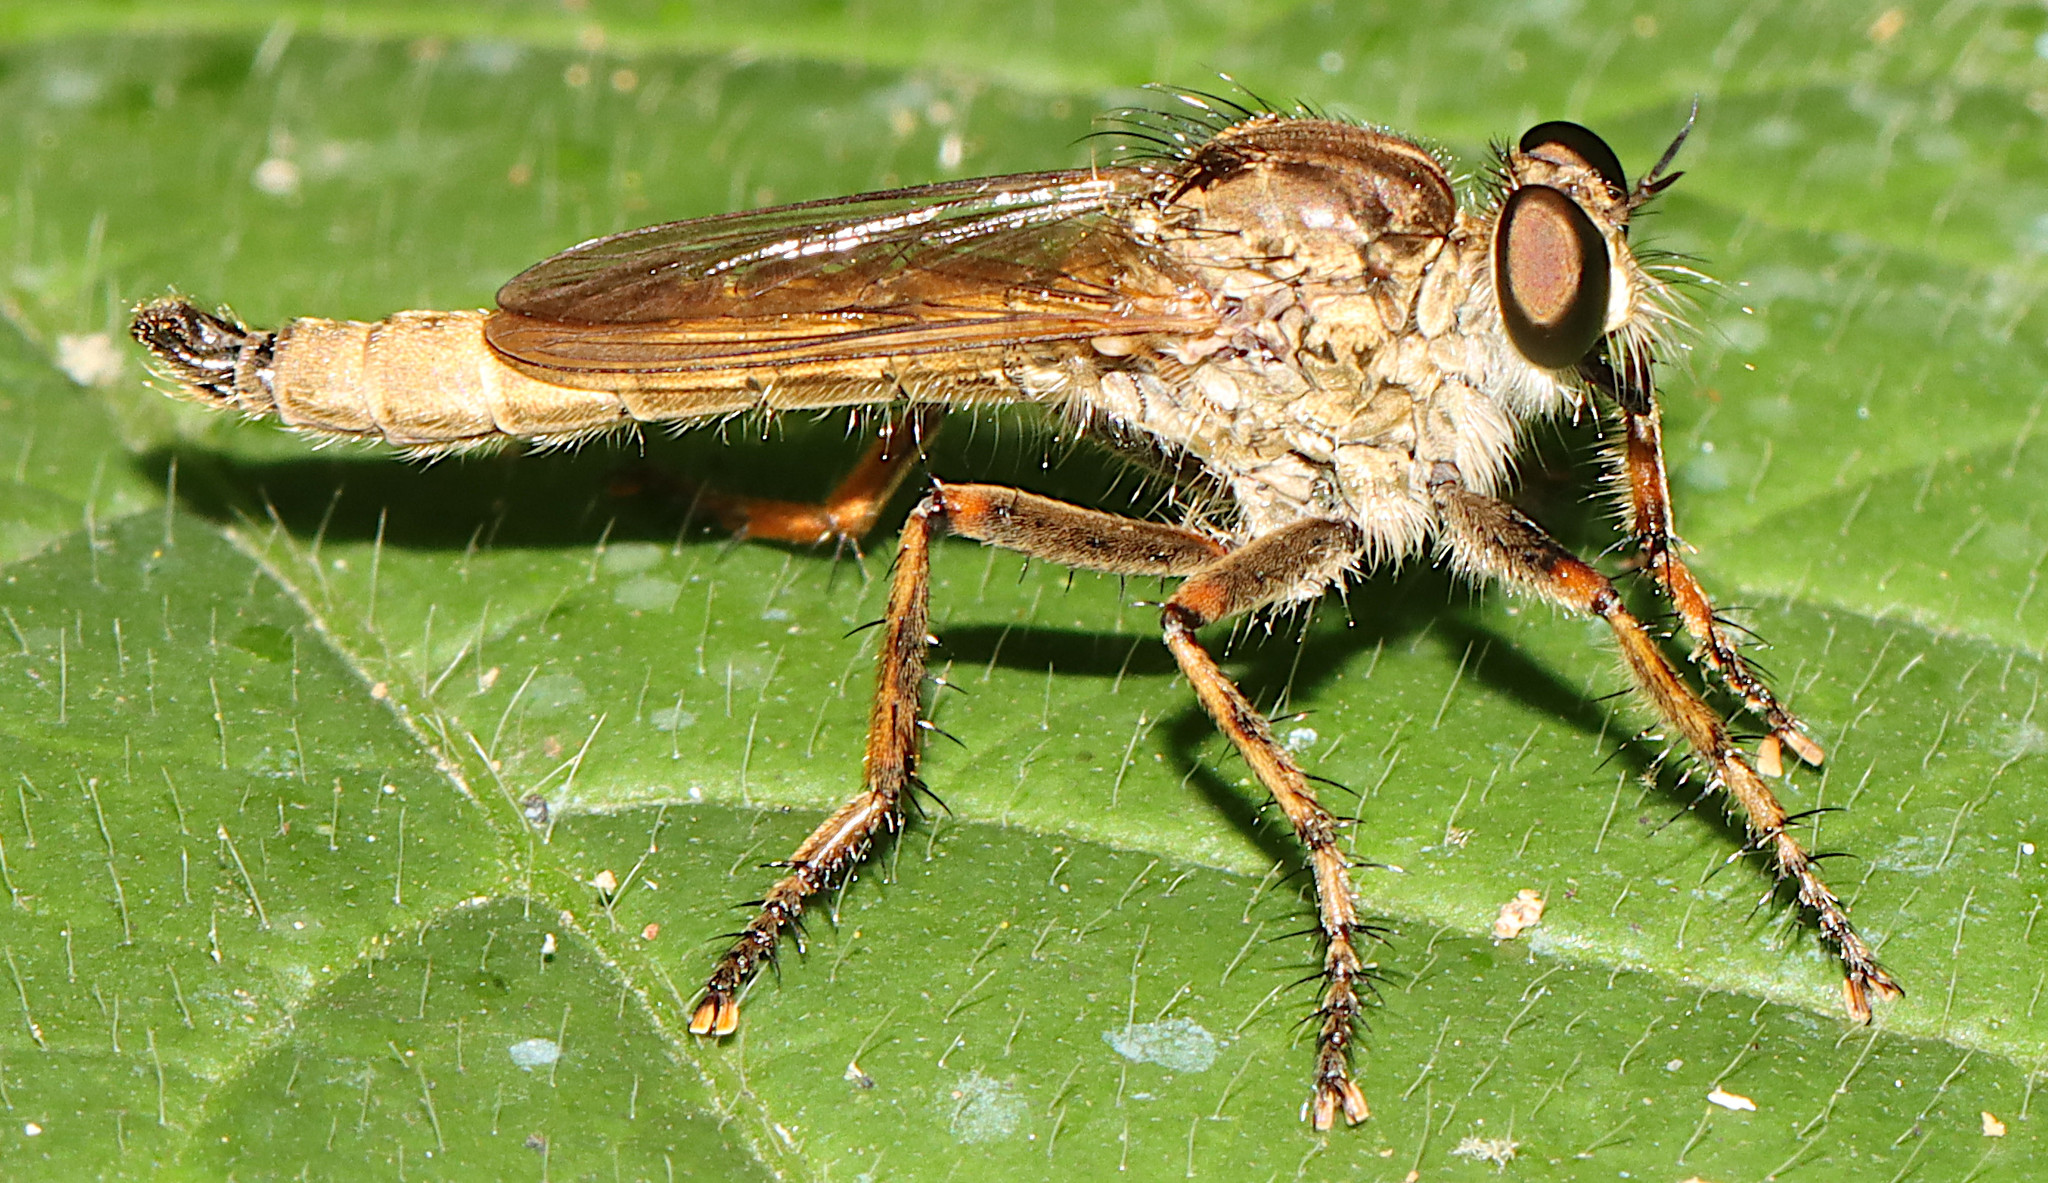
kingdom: Animalia
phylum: Arthropoda
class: Insecta
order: Diptera
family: Asilidae
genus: Machimus
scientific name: Machimus erythocnemius
